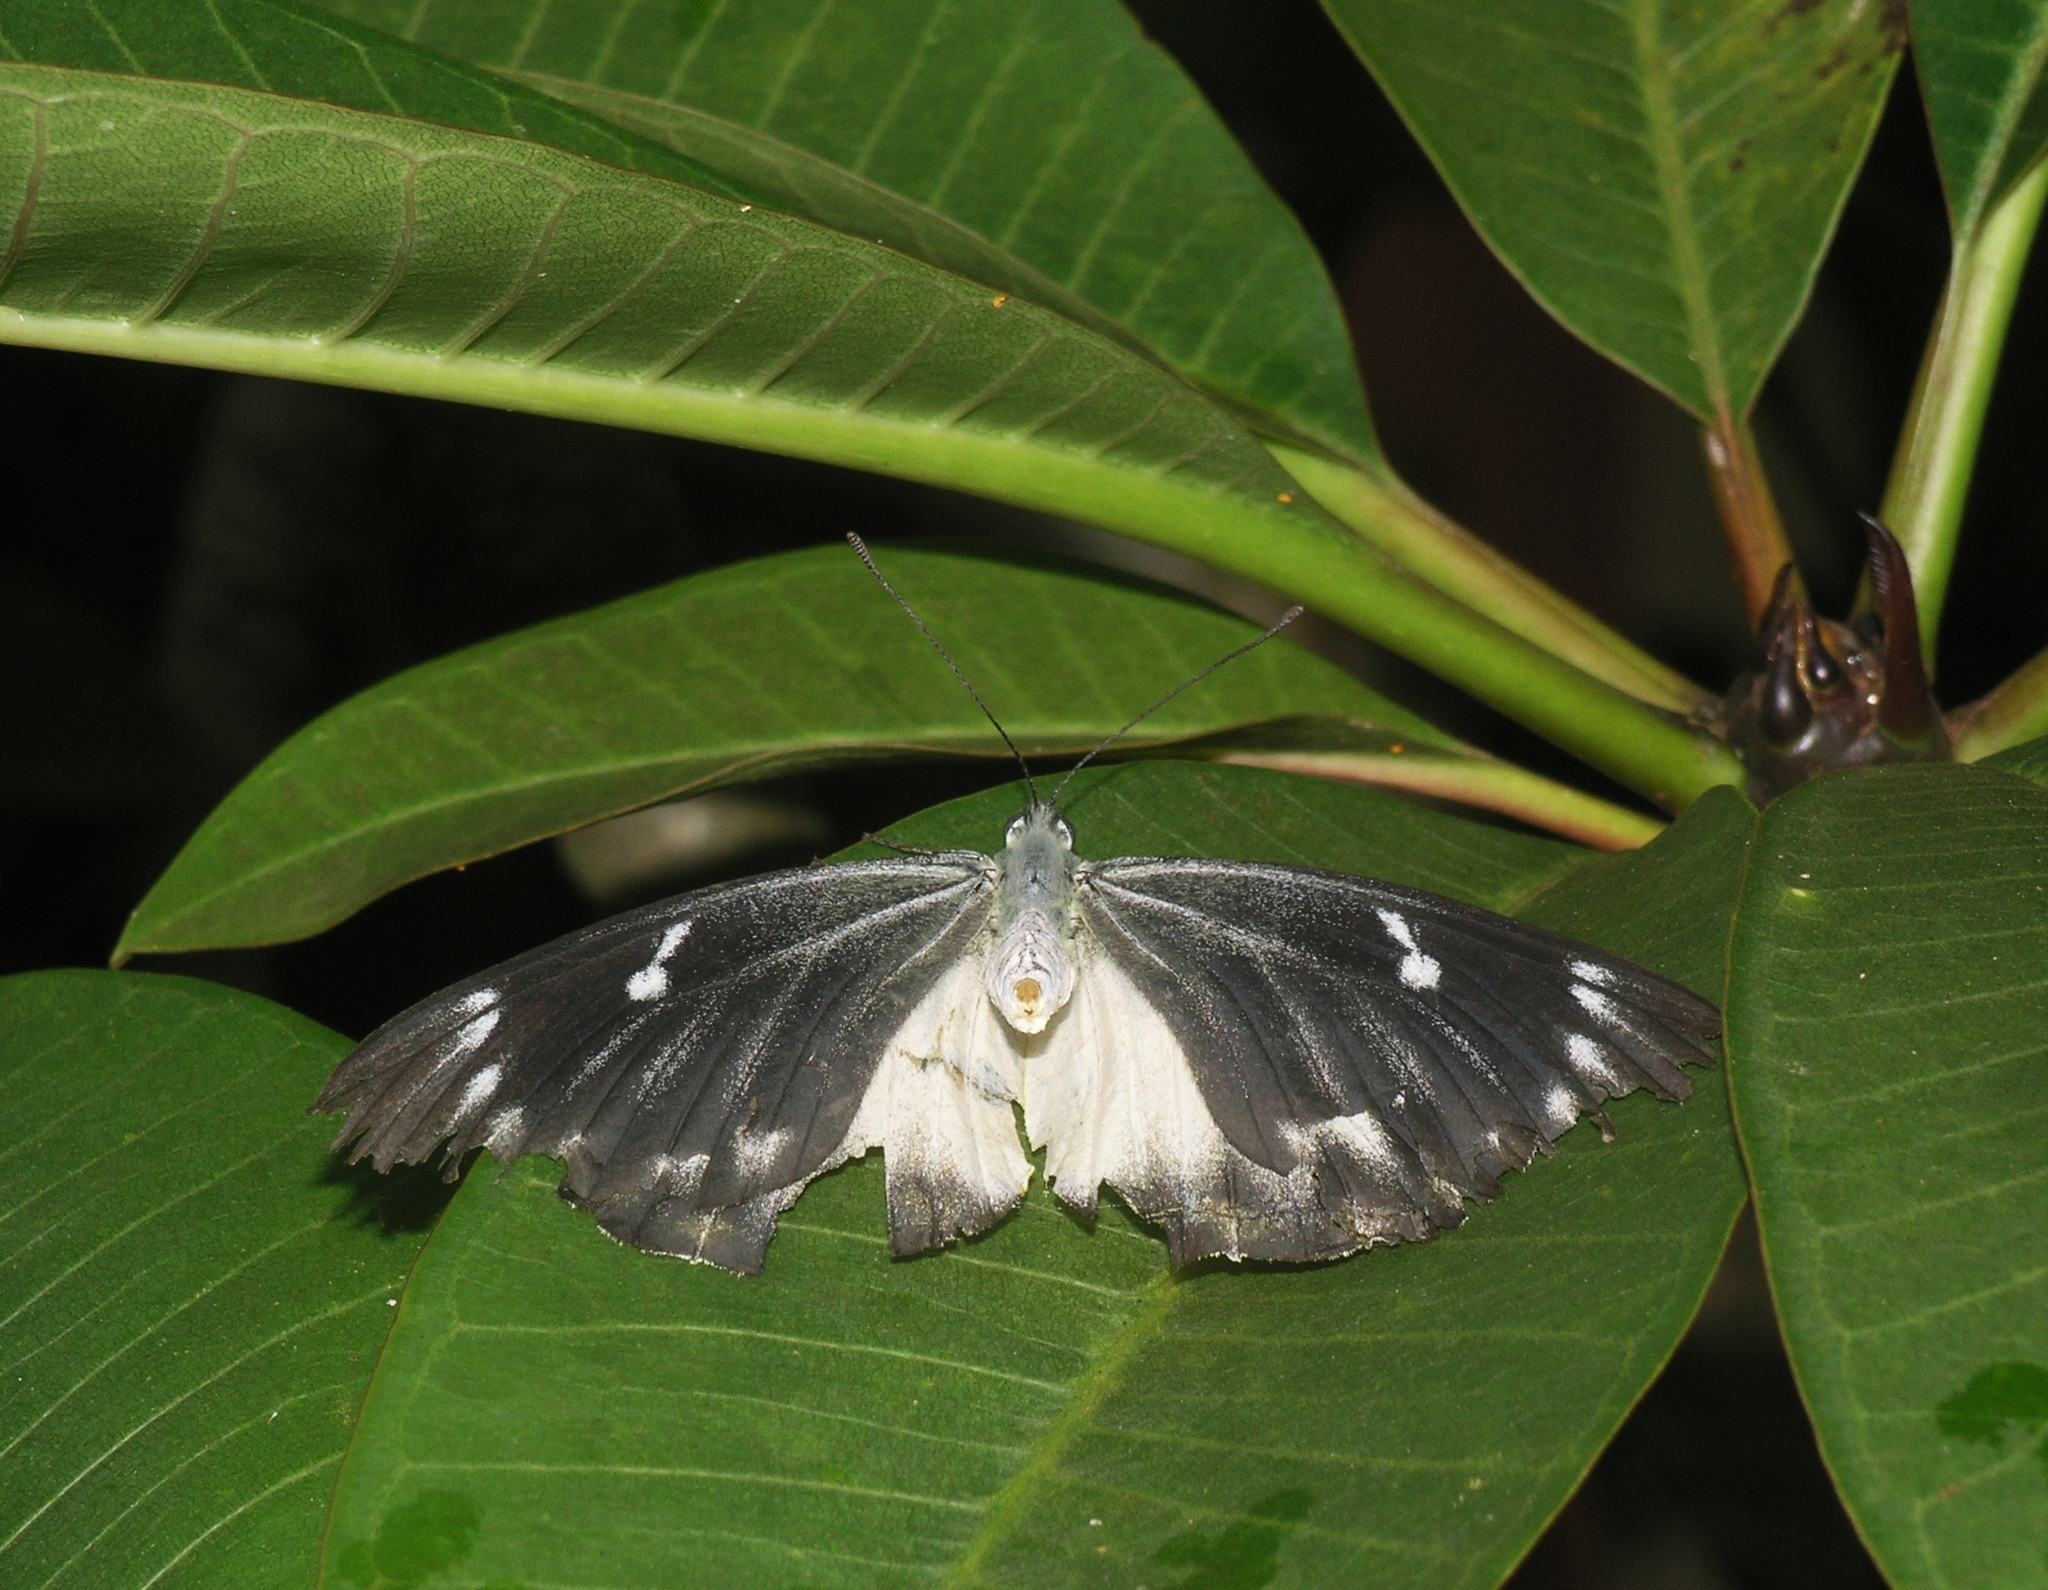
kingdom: Animalia
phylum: Arthropoda
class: Insecta
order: Lepidoptera
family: Pieridae
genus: Delias
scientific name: Delias descombesi
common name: Red-spot jezebel
